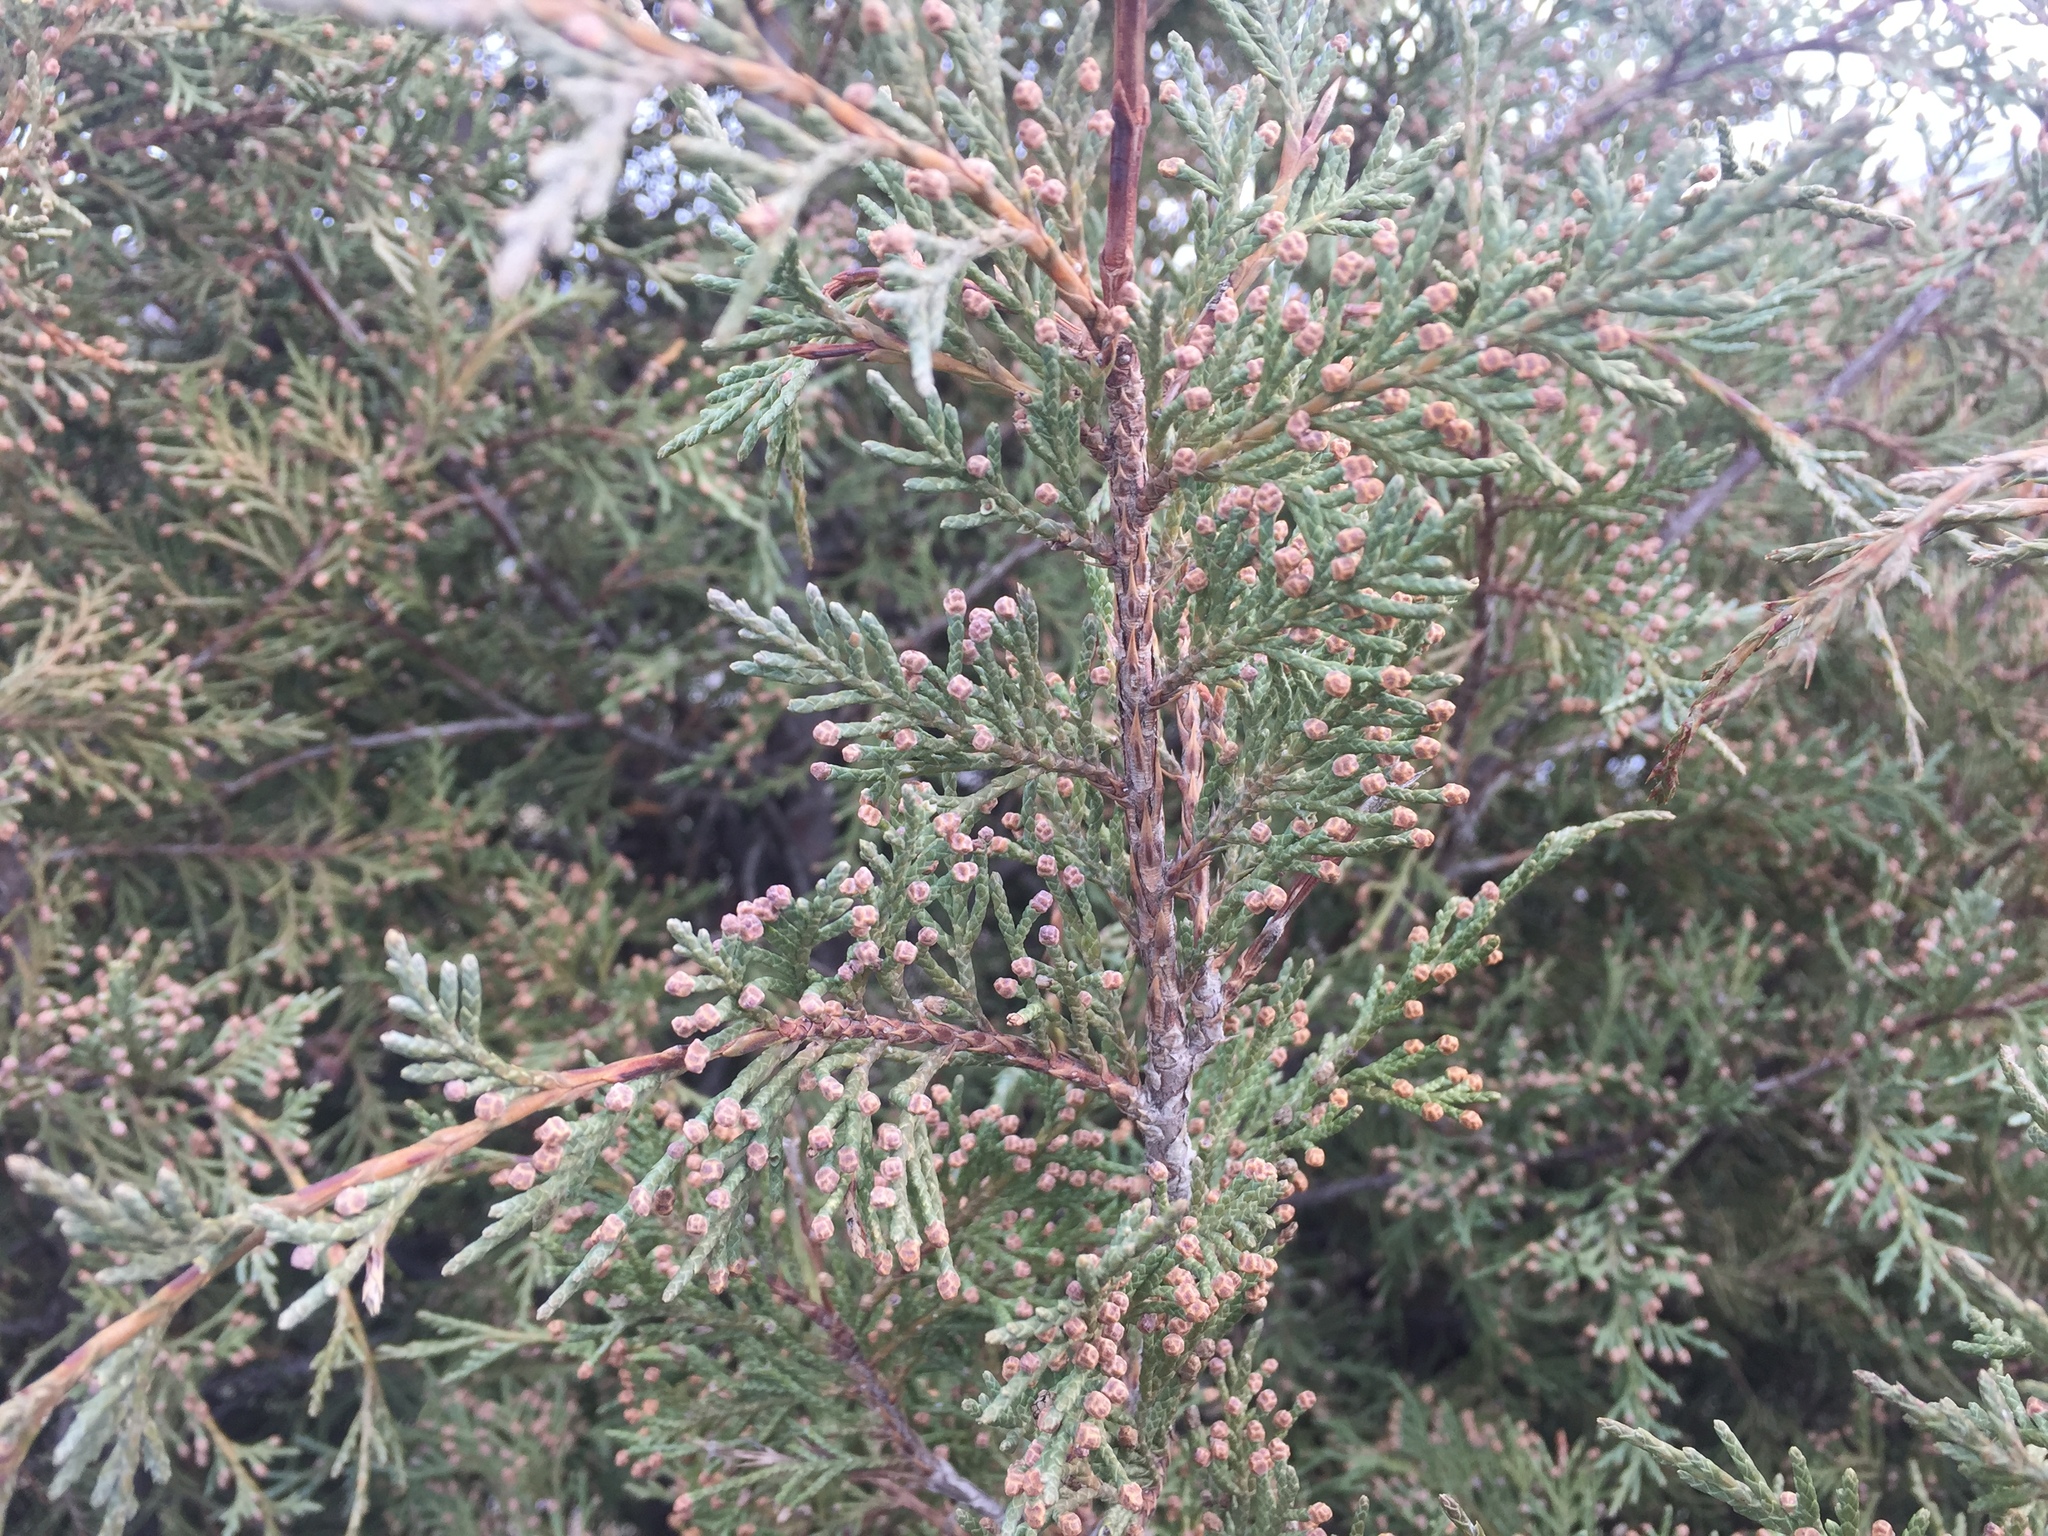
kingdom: Plantae
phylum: Tracheophyta
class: Pinopsida
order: Pinales
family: Cupressaceae
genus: Juniperus
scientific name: Juniperus scopulorum
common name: Rocky mountain juniper
